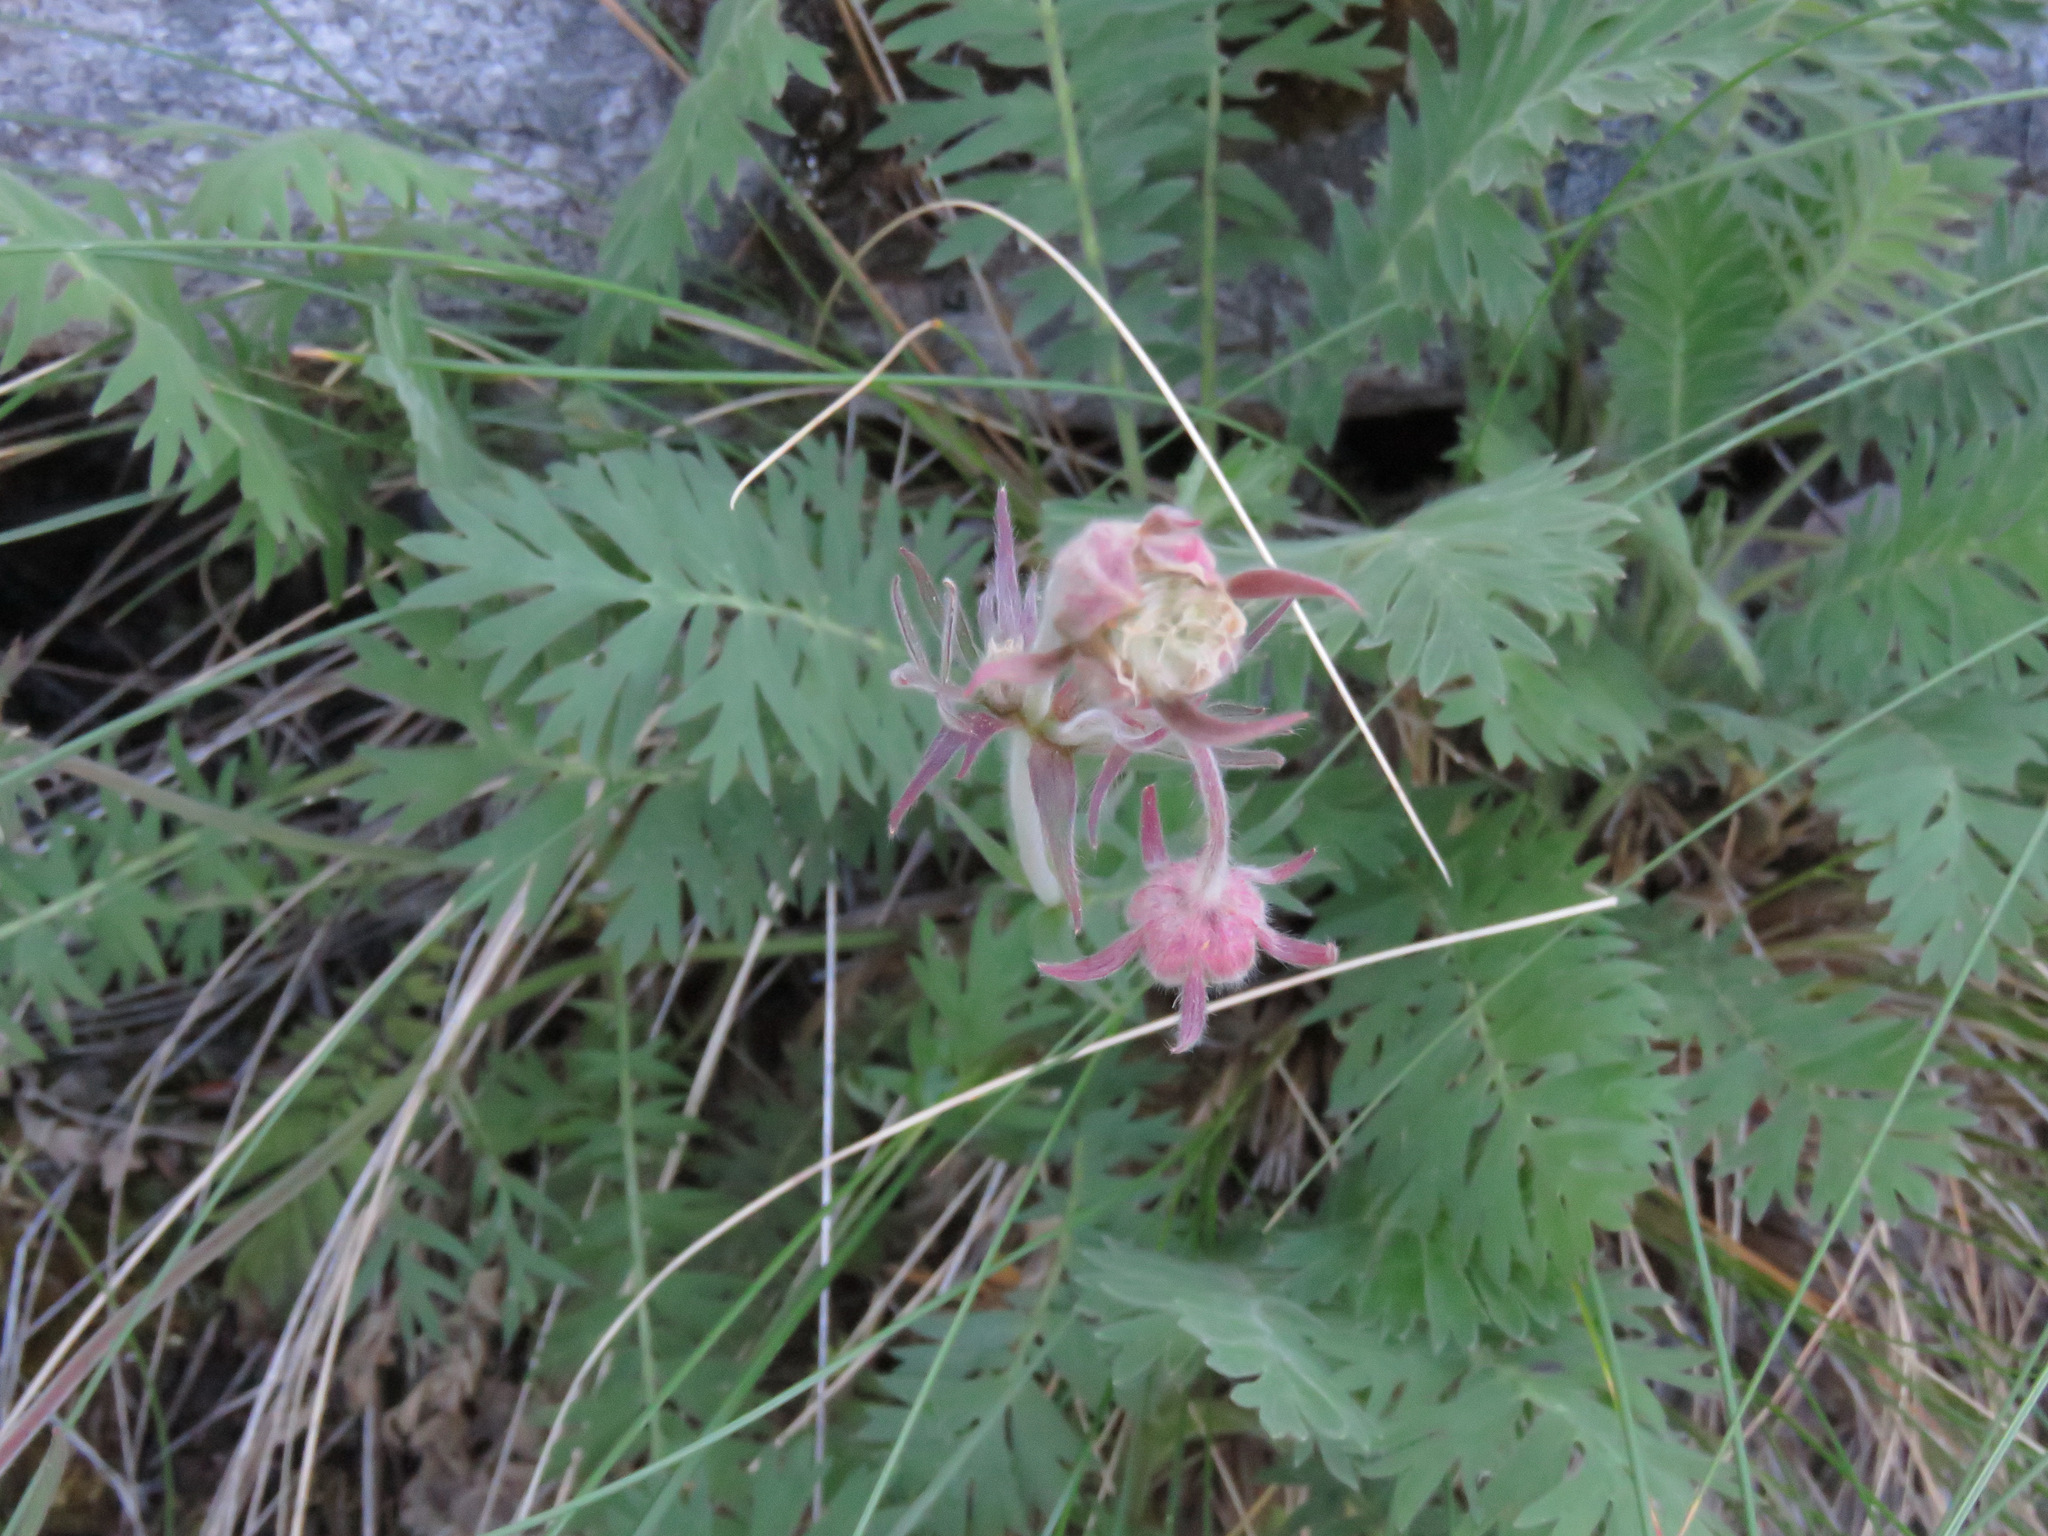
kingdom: Plantae
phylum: Tracheophyta
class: Magnoliopsida
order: Rosales
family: Rosaceae
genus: Geum
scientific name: Geum triflorum
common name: Old man's whiskers
